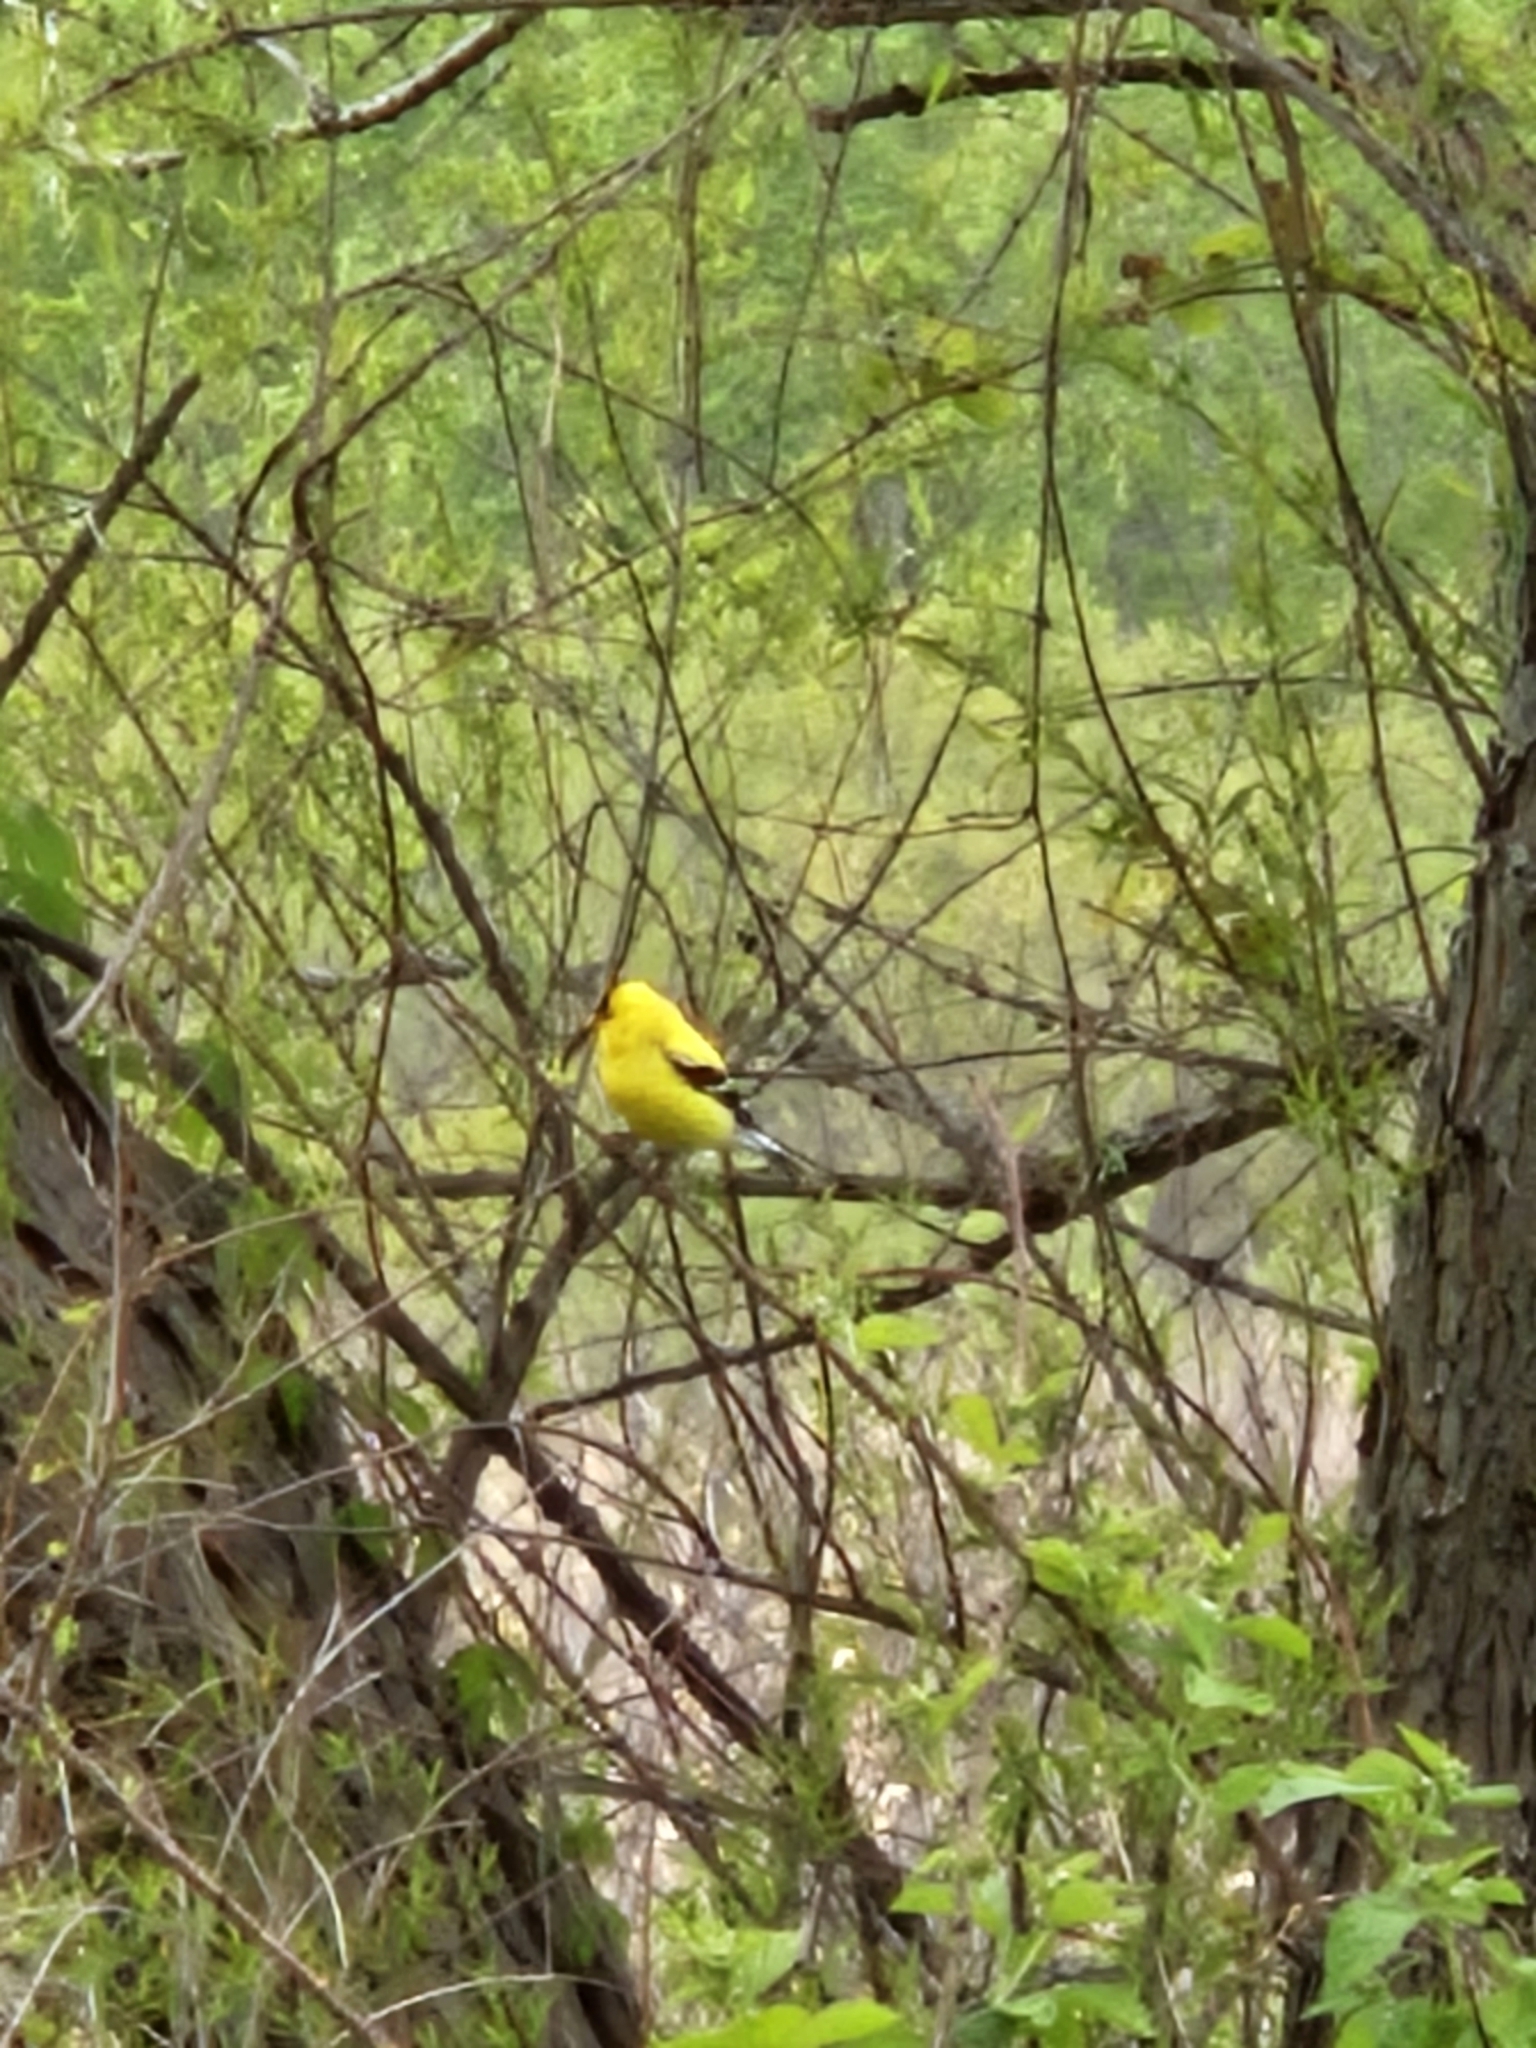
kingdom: Animalia
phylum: Chordata
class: Aves
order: Passeriformes
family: Fringillidae
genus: Spinus
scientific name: Spinus tristis
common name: American goldfinch
